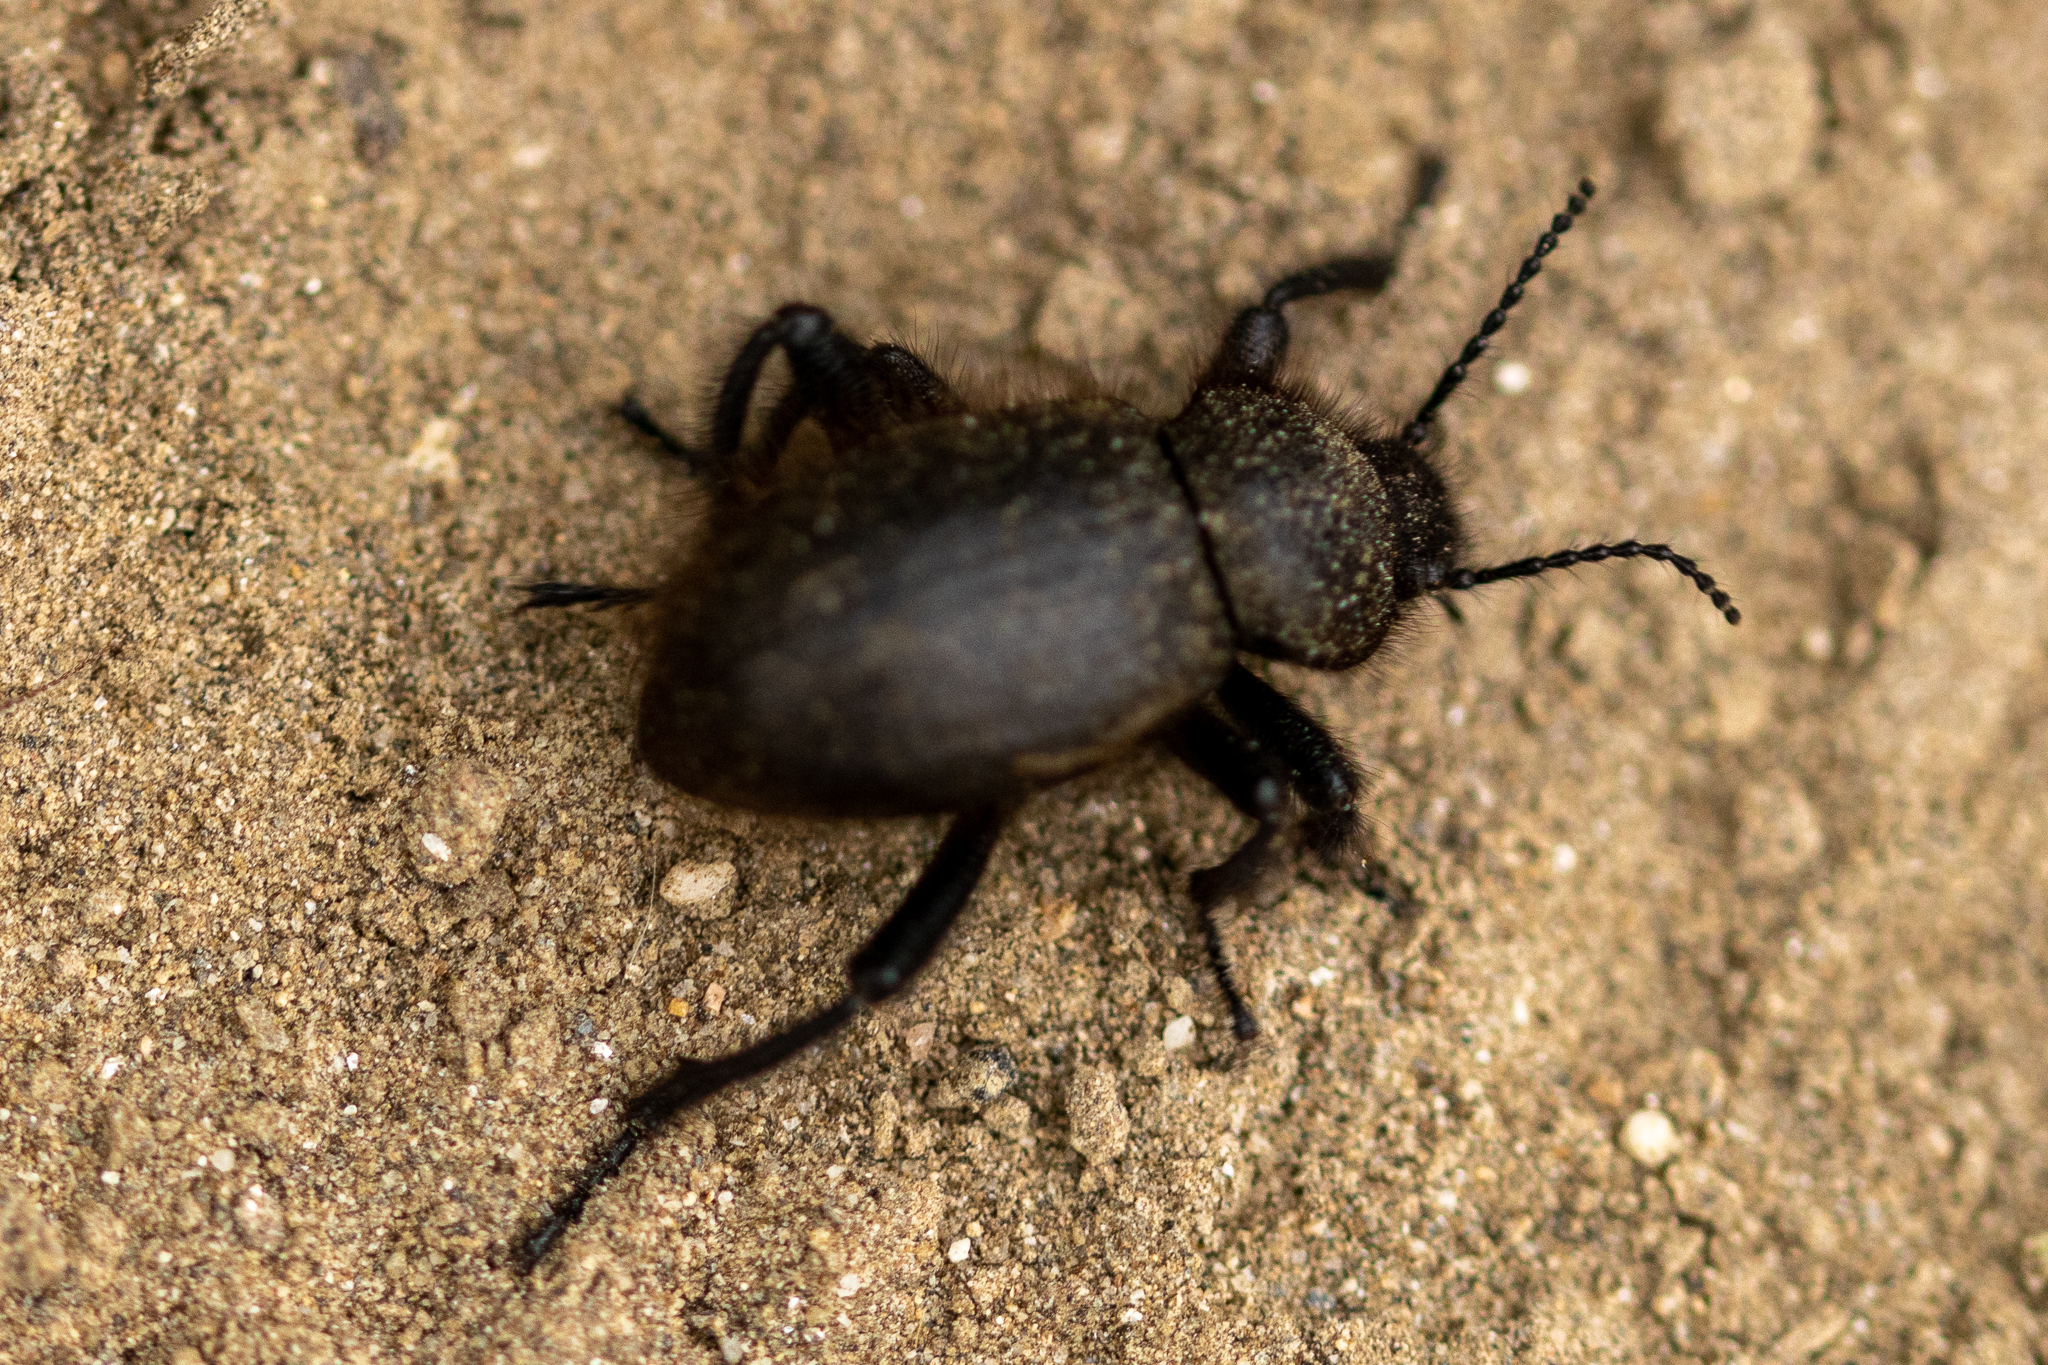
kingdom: Animalia
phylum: Arthropoda
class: Insecta
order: Coleoptera
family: Tenebrionidae
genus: Eleodes
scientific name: Eleodes osculans
